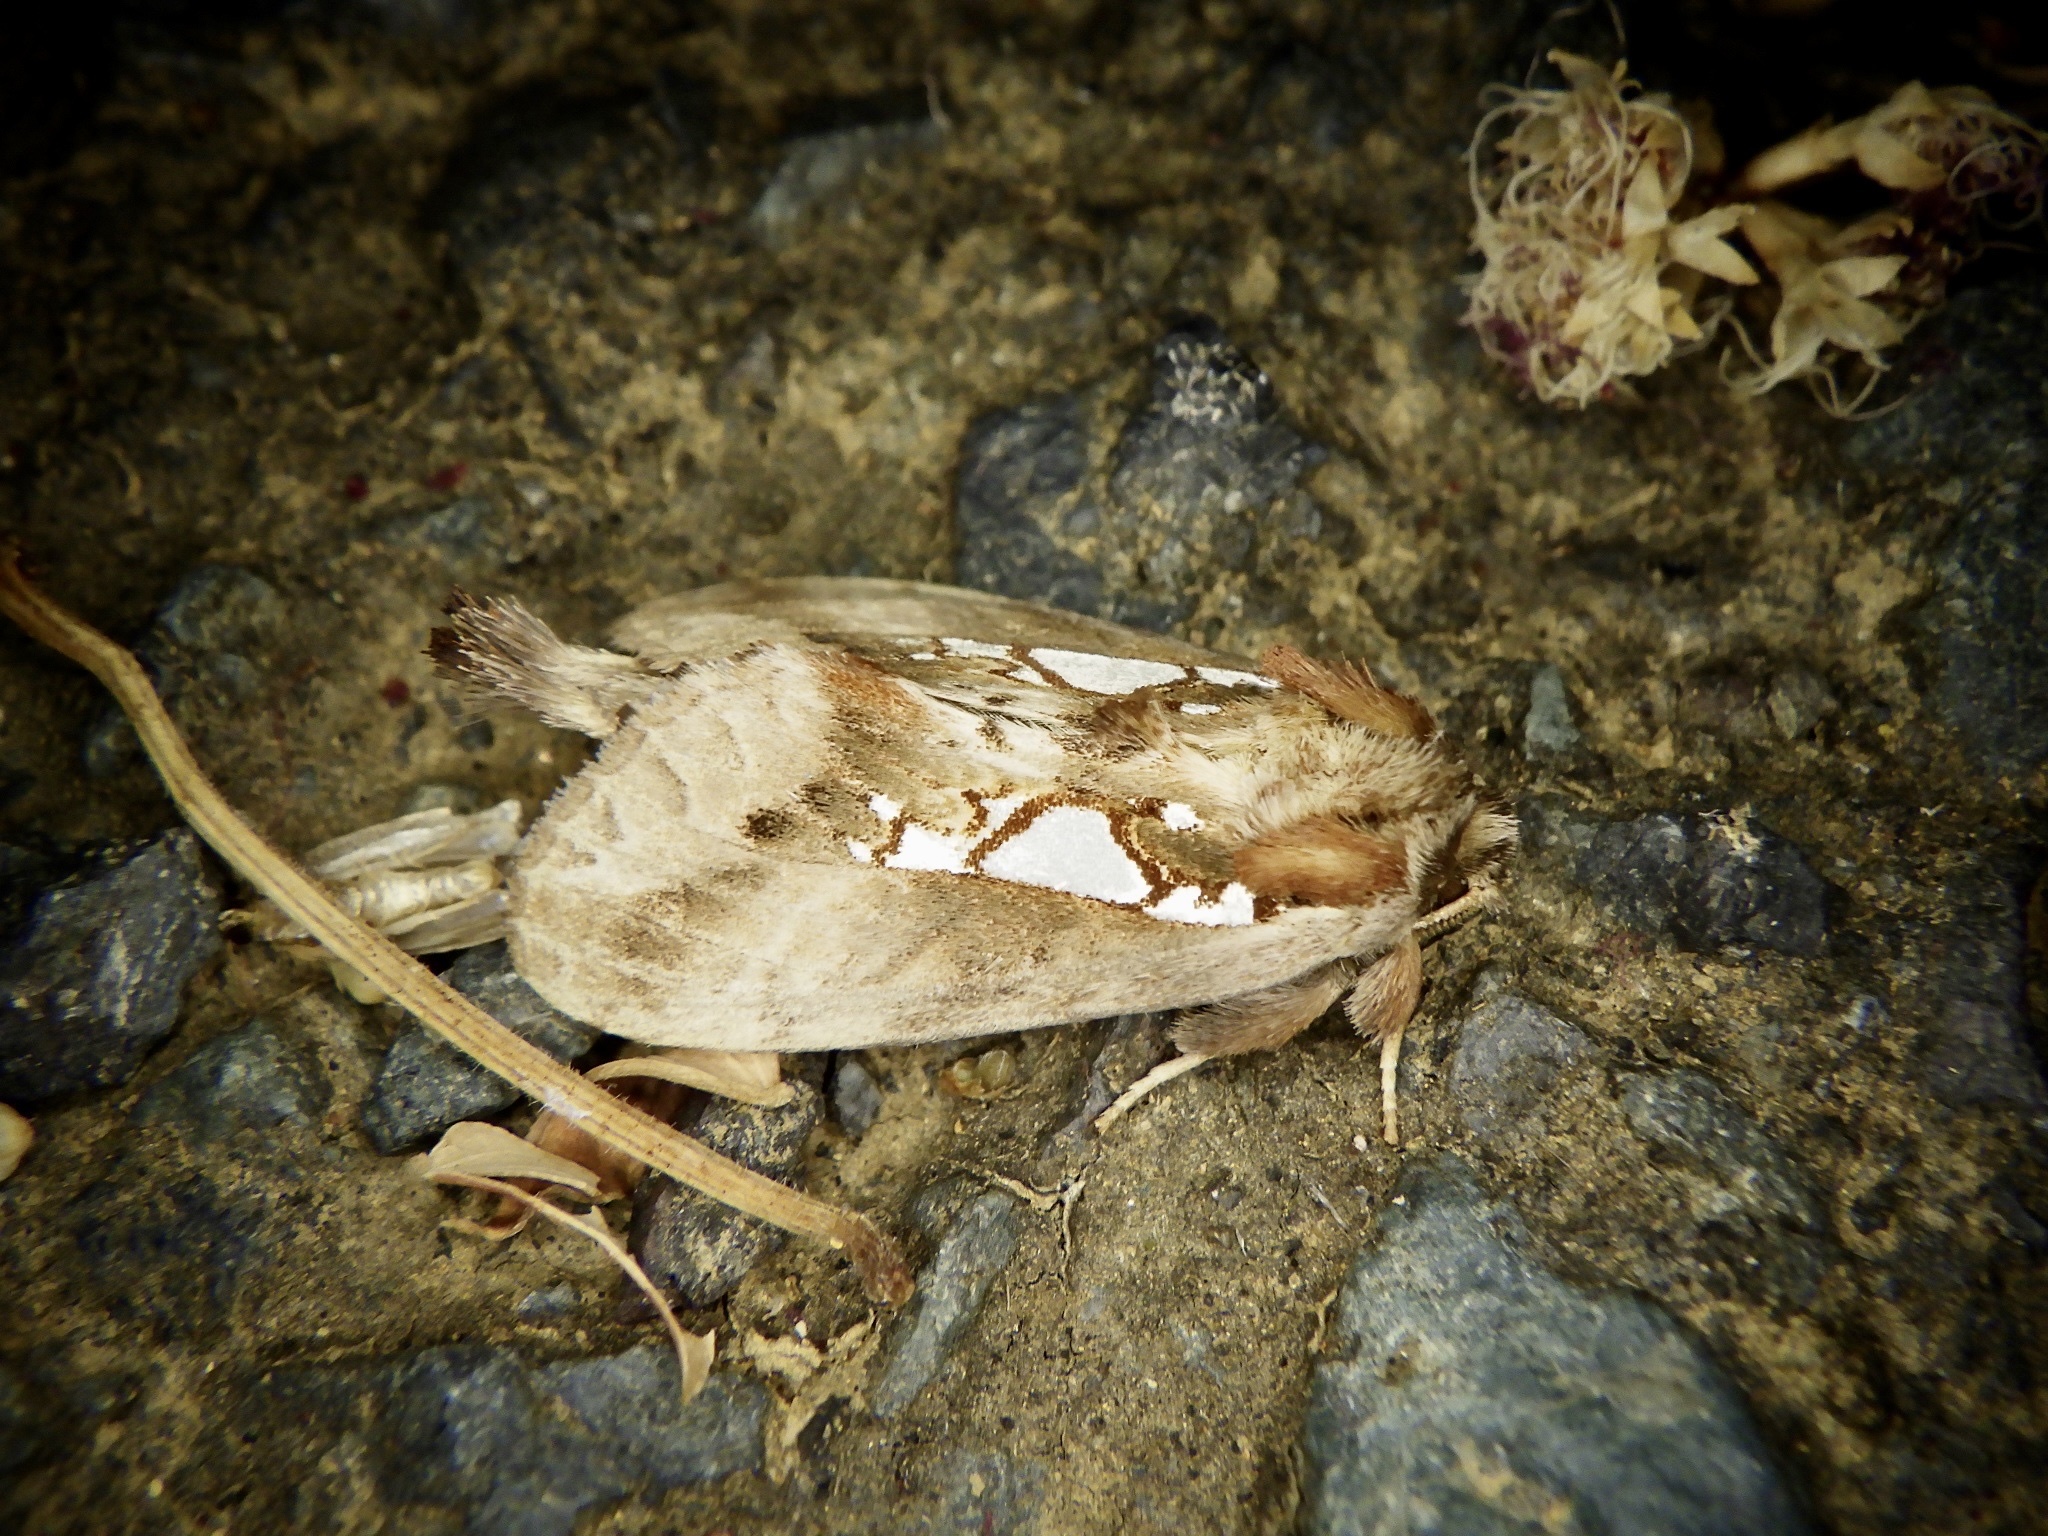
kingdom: Animalia
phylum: Arthropoda
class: Insecta
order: Lepidoptera
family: Notodontidae
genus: Spatalia
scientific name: Spatalia doerriesi
